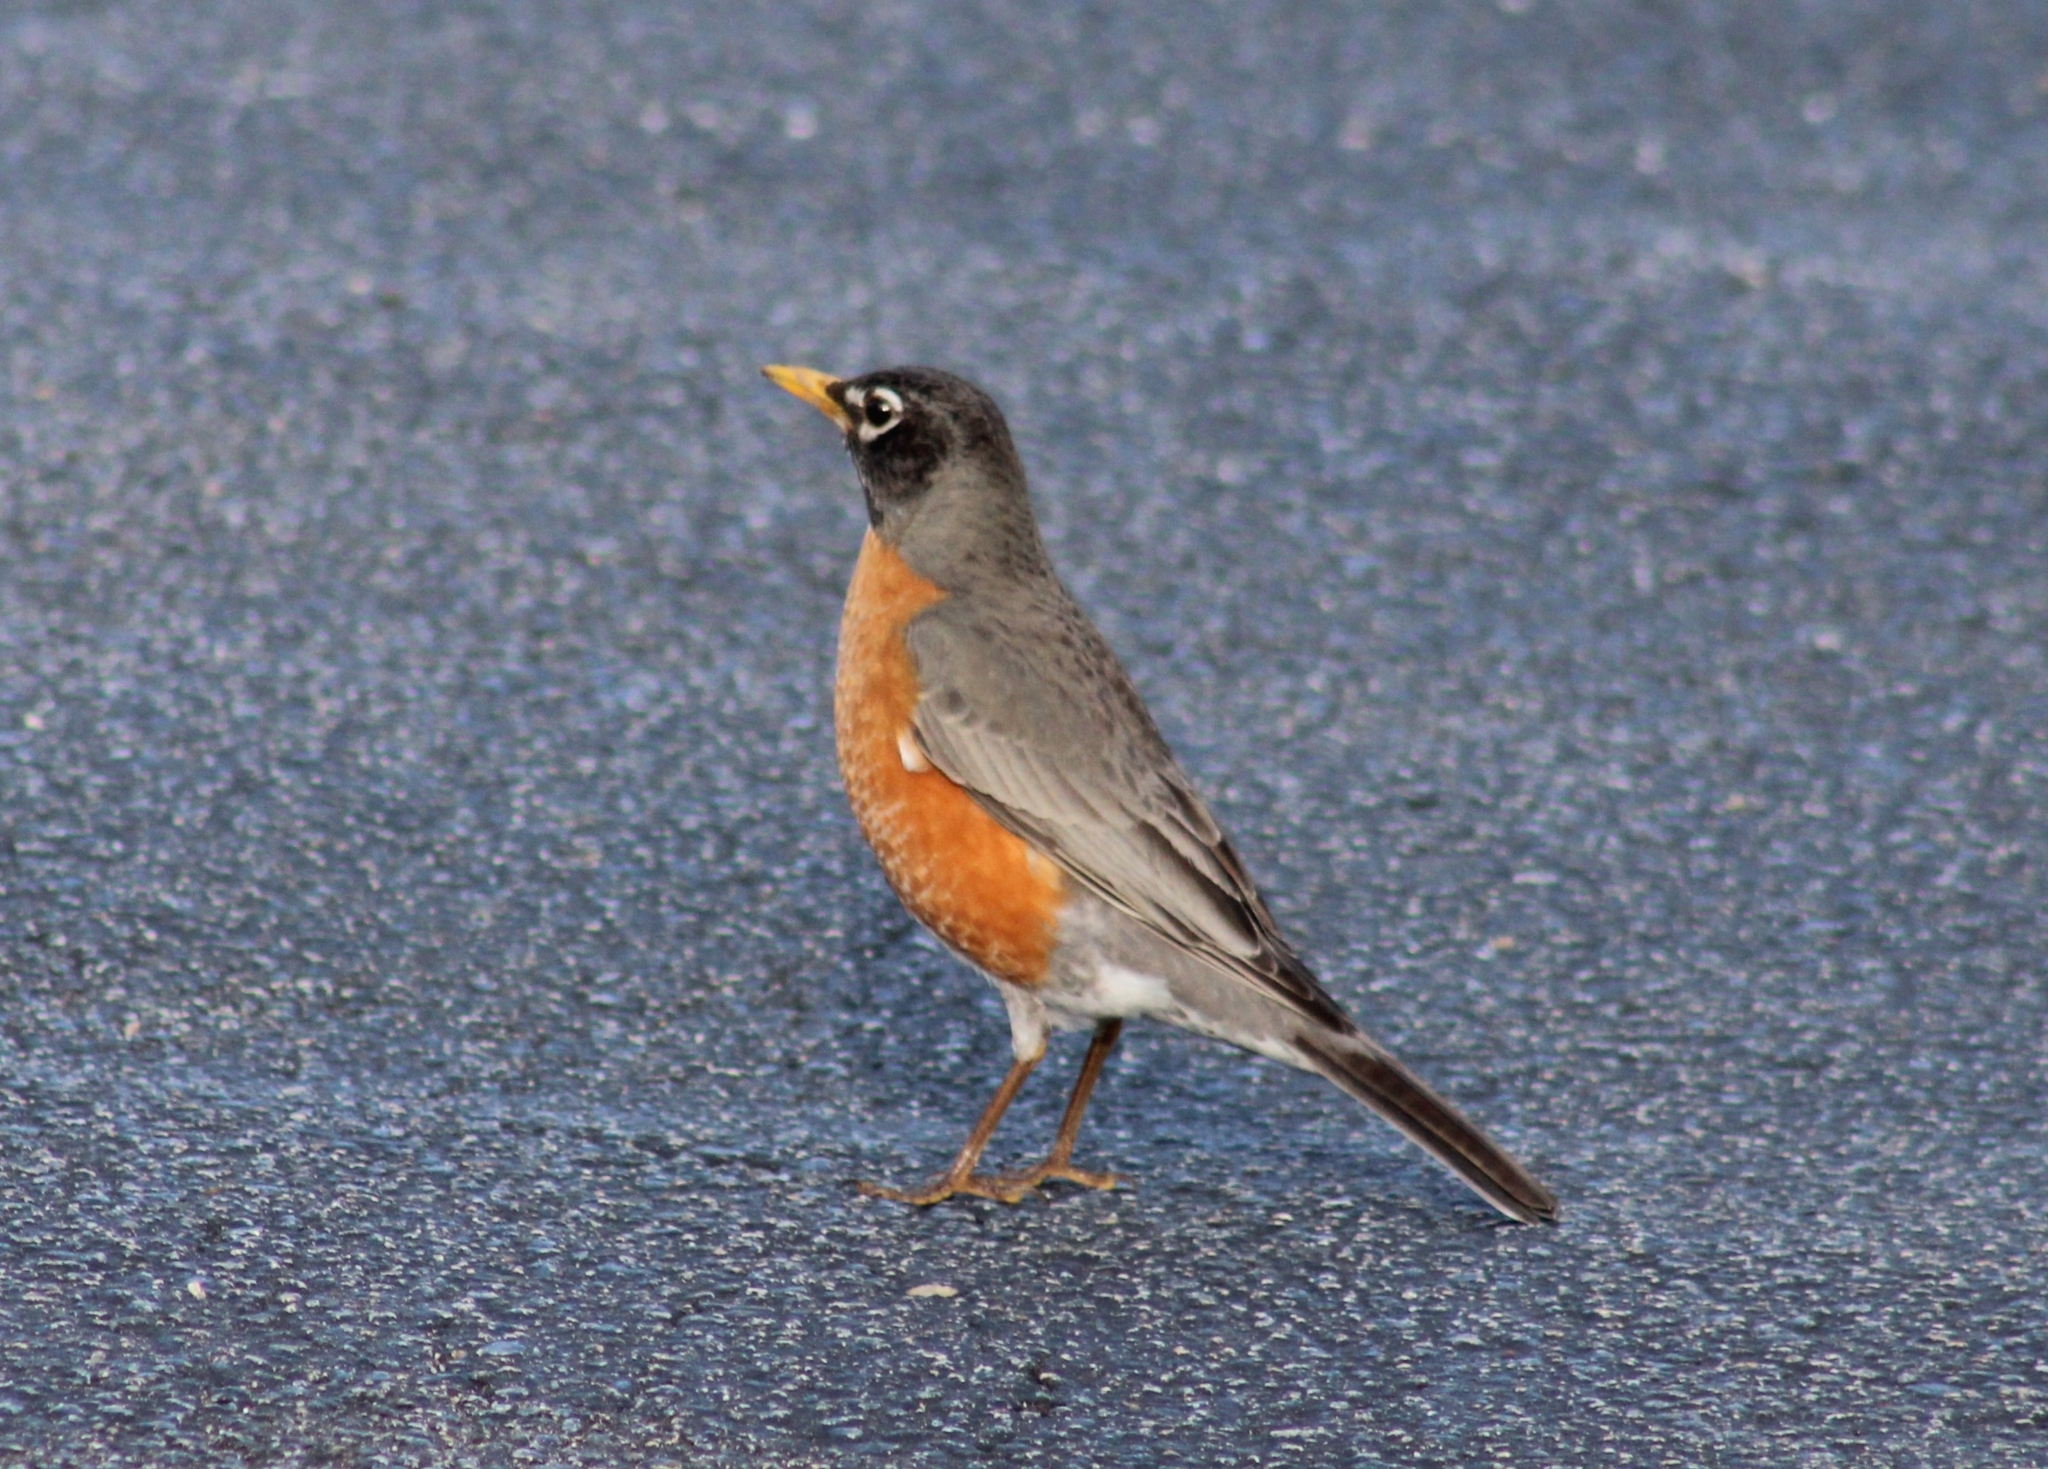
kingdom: Animalia
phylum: Chordata
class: Aves
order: Passeriformes
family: Turdidae
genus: Turdus
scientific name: Turdus migratorius
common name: American robin
